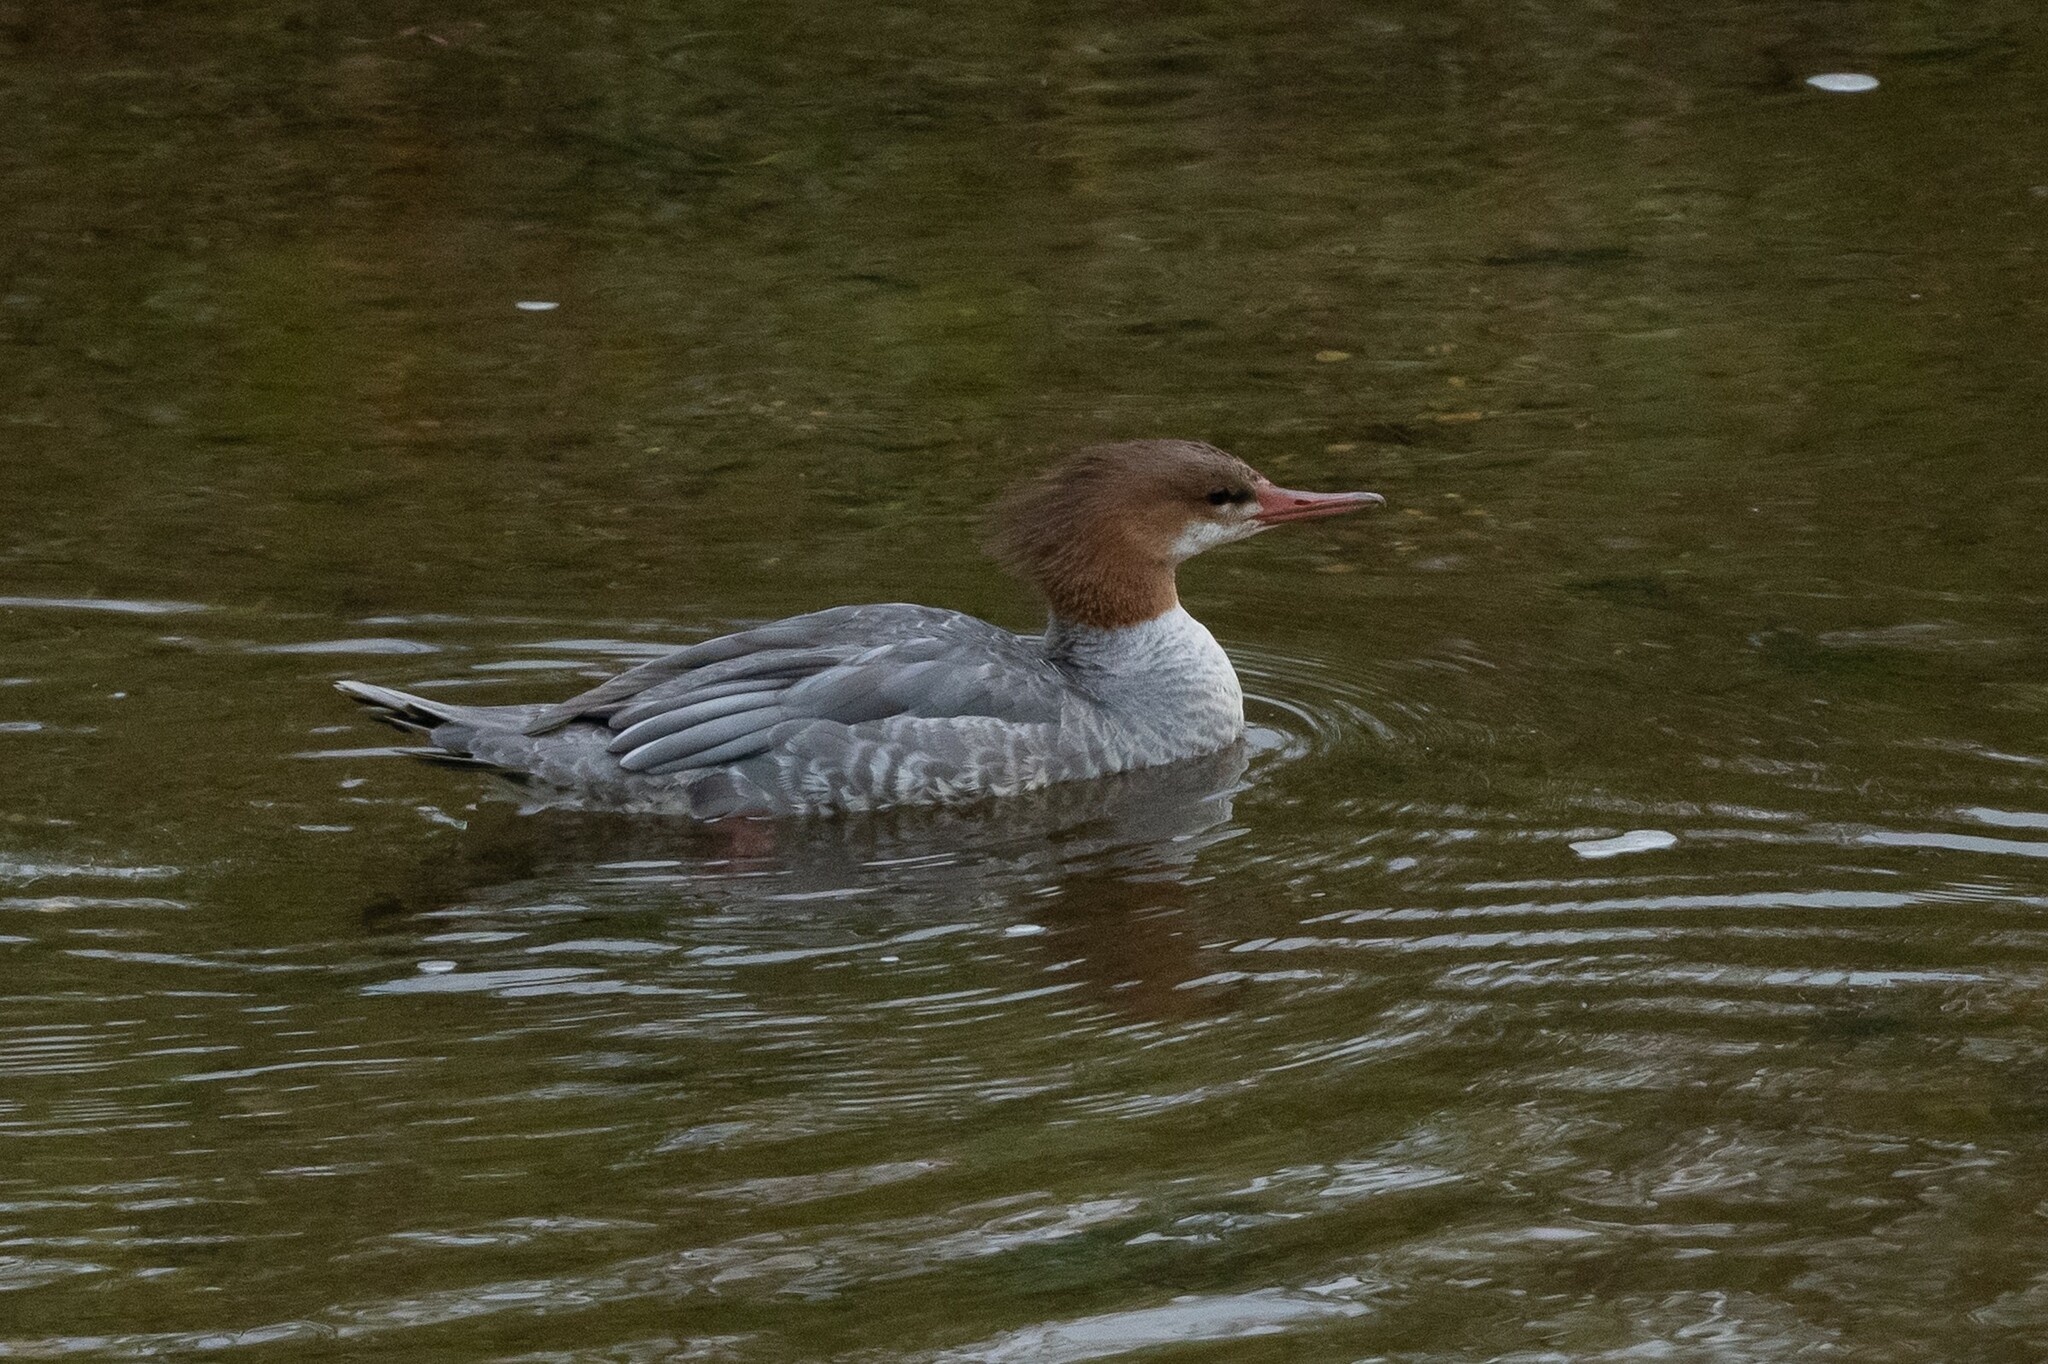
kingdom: Animalia
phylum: Chordata
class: Aves
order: Anseriformes
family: Anatidae
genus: Mergus
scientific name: Mergus merganser
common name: Common merganser
